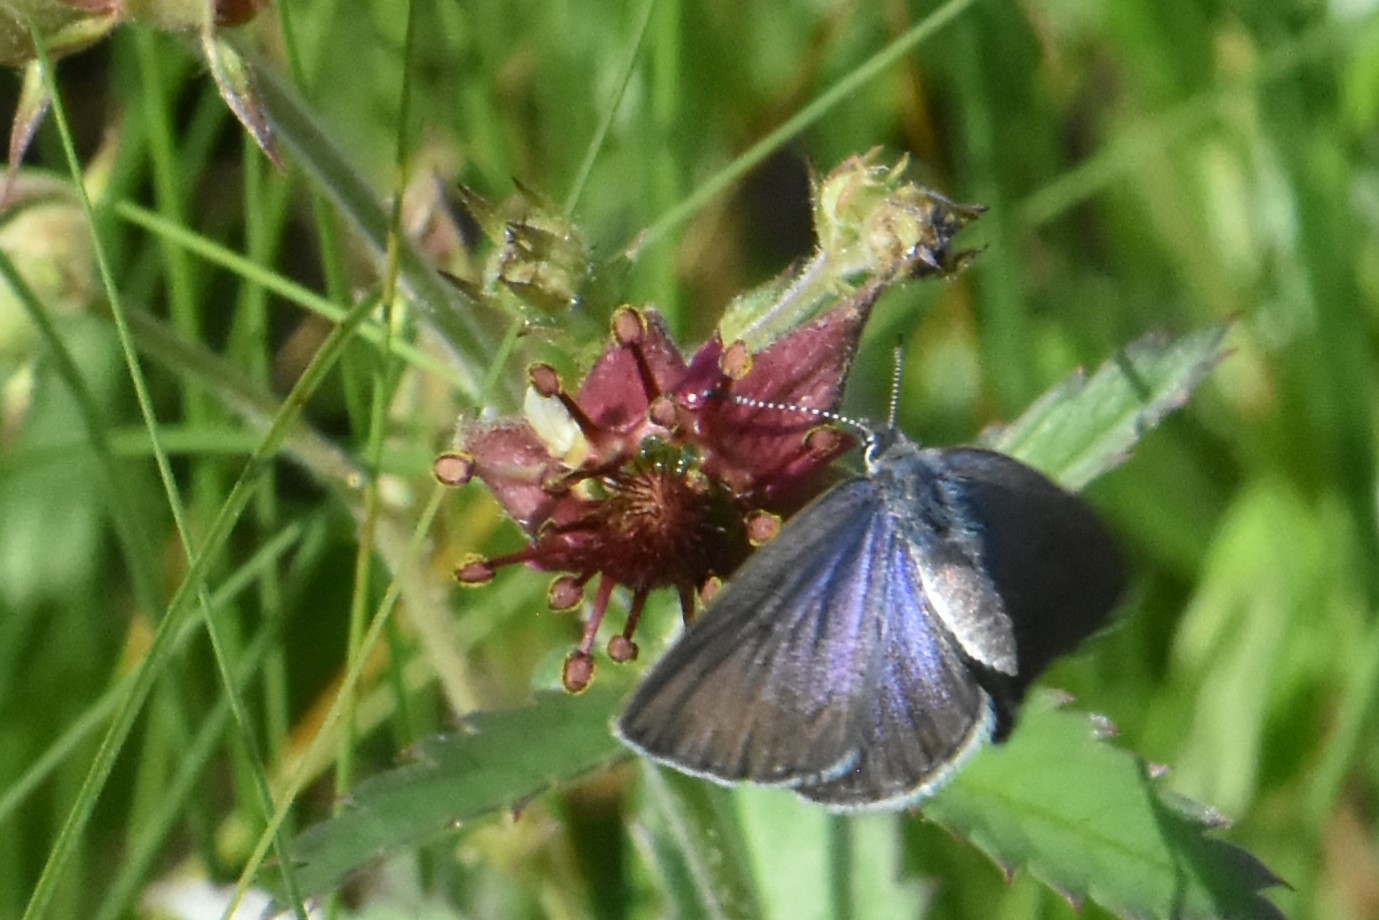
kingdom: Animalia
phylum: Arthropoda
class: Insecta
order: Lepidoptera
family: Lycaenidae
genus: Vacciniina
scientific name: Vacciniina optilete
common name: Cranberry blue
